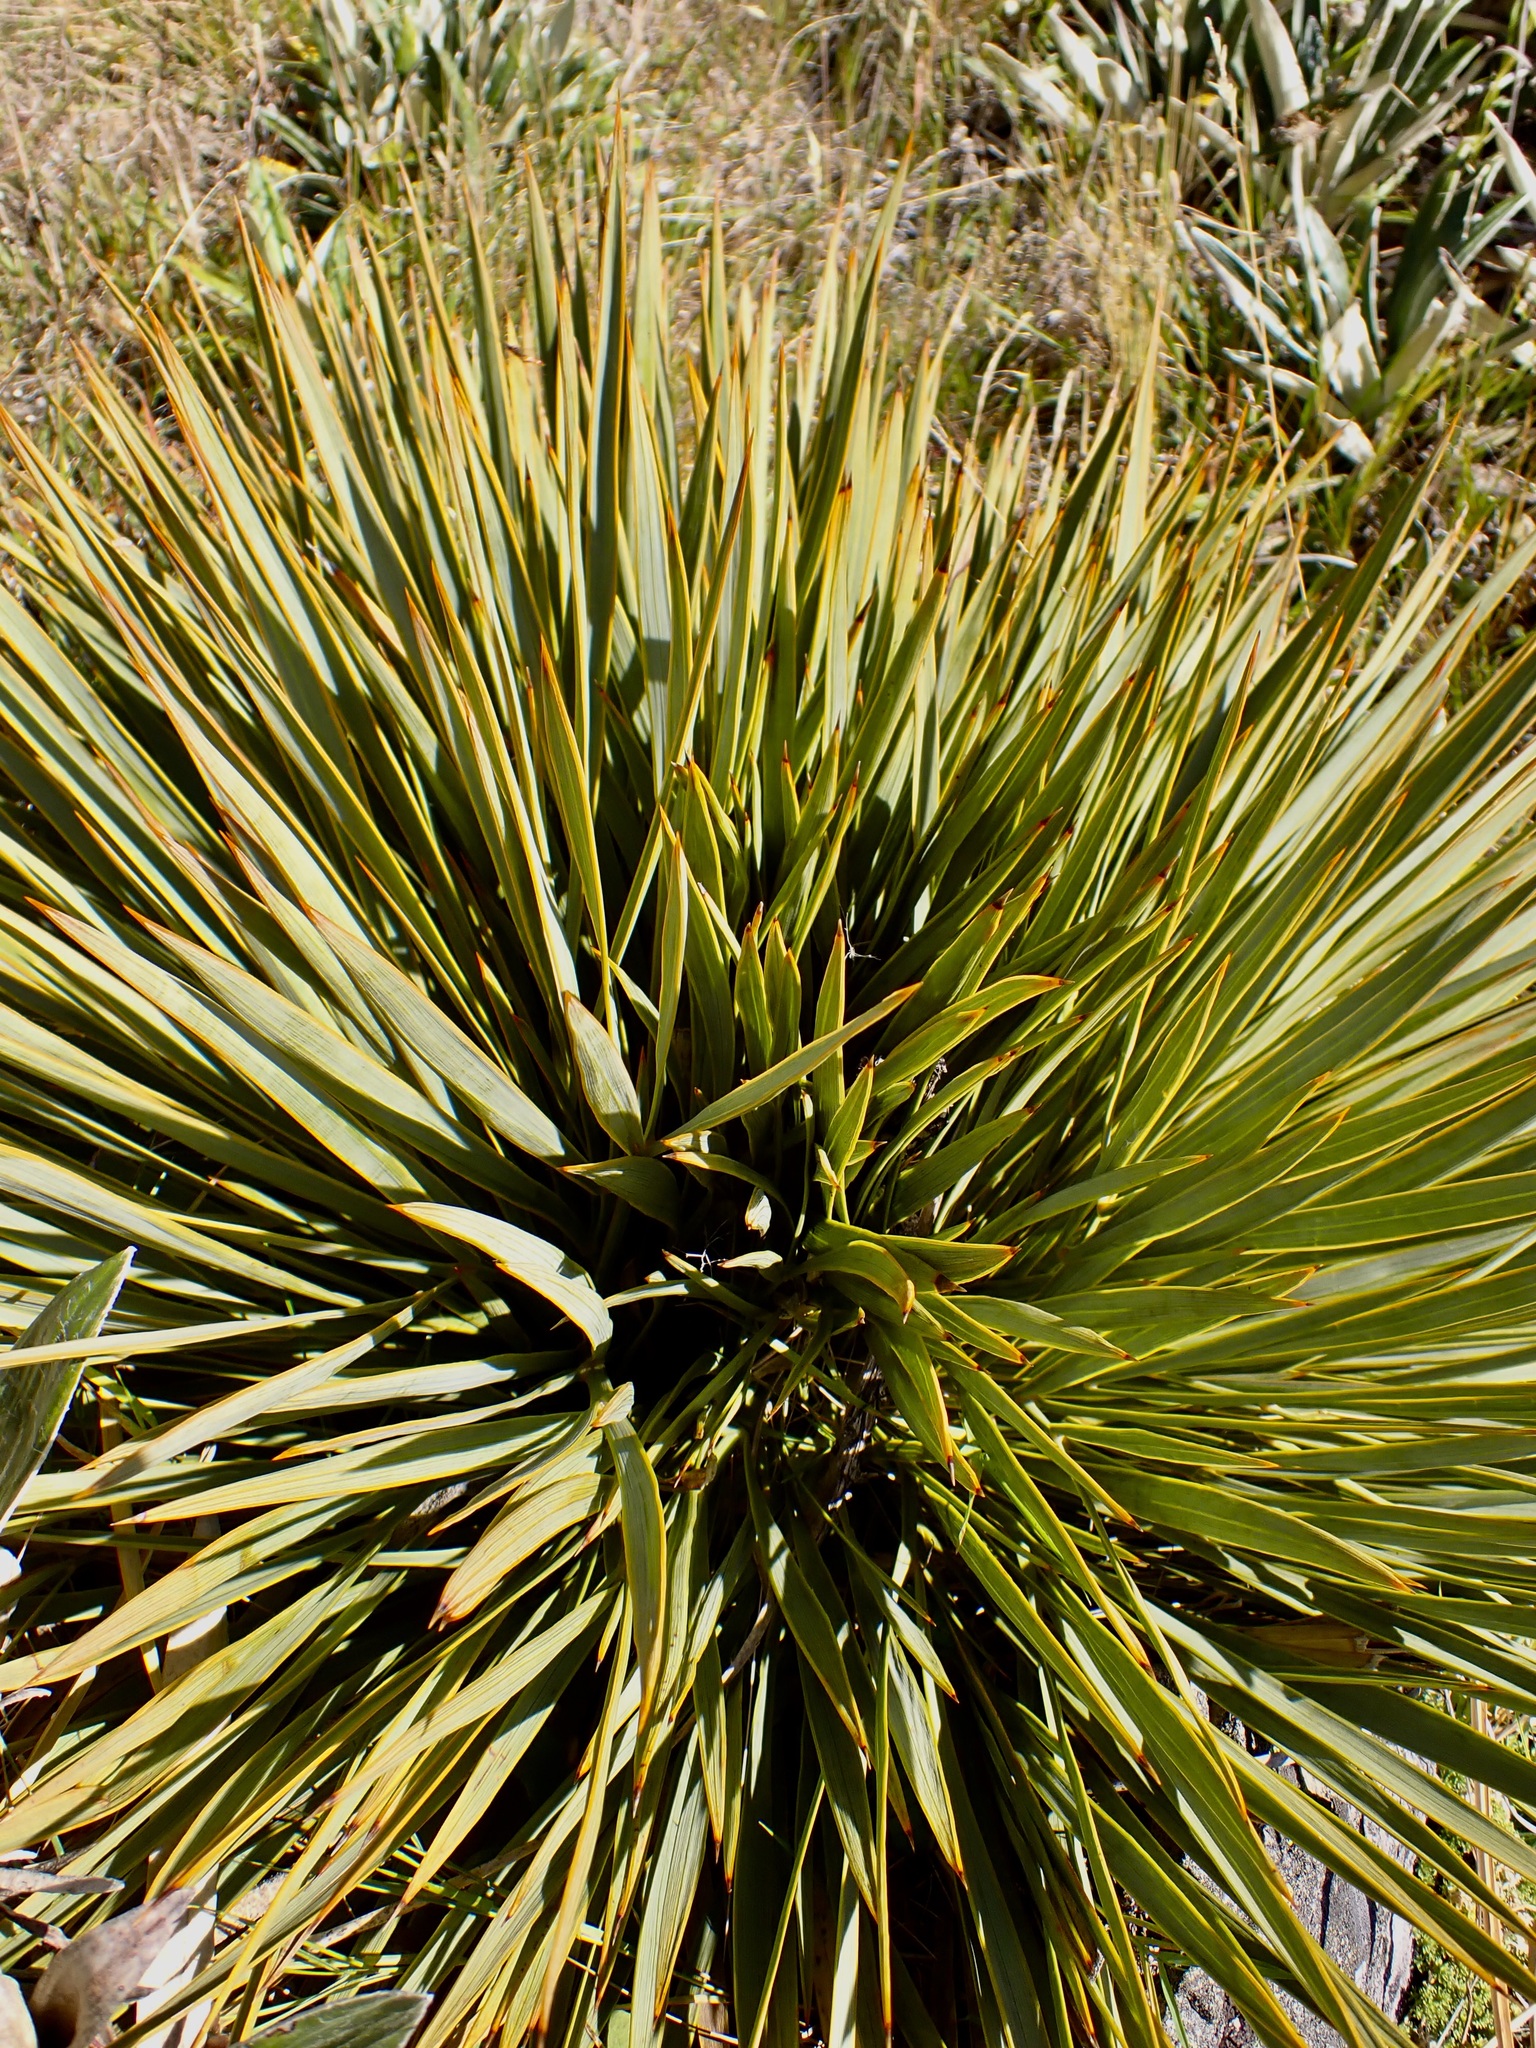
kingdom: Plantae
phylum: Tracheophyta
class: Magnoliopsida
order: Apiales
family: Apiaceae
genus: Aciphylla
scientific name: Aciphylla aurea
